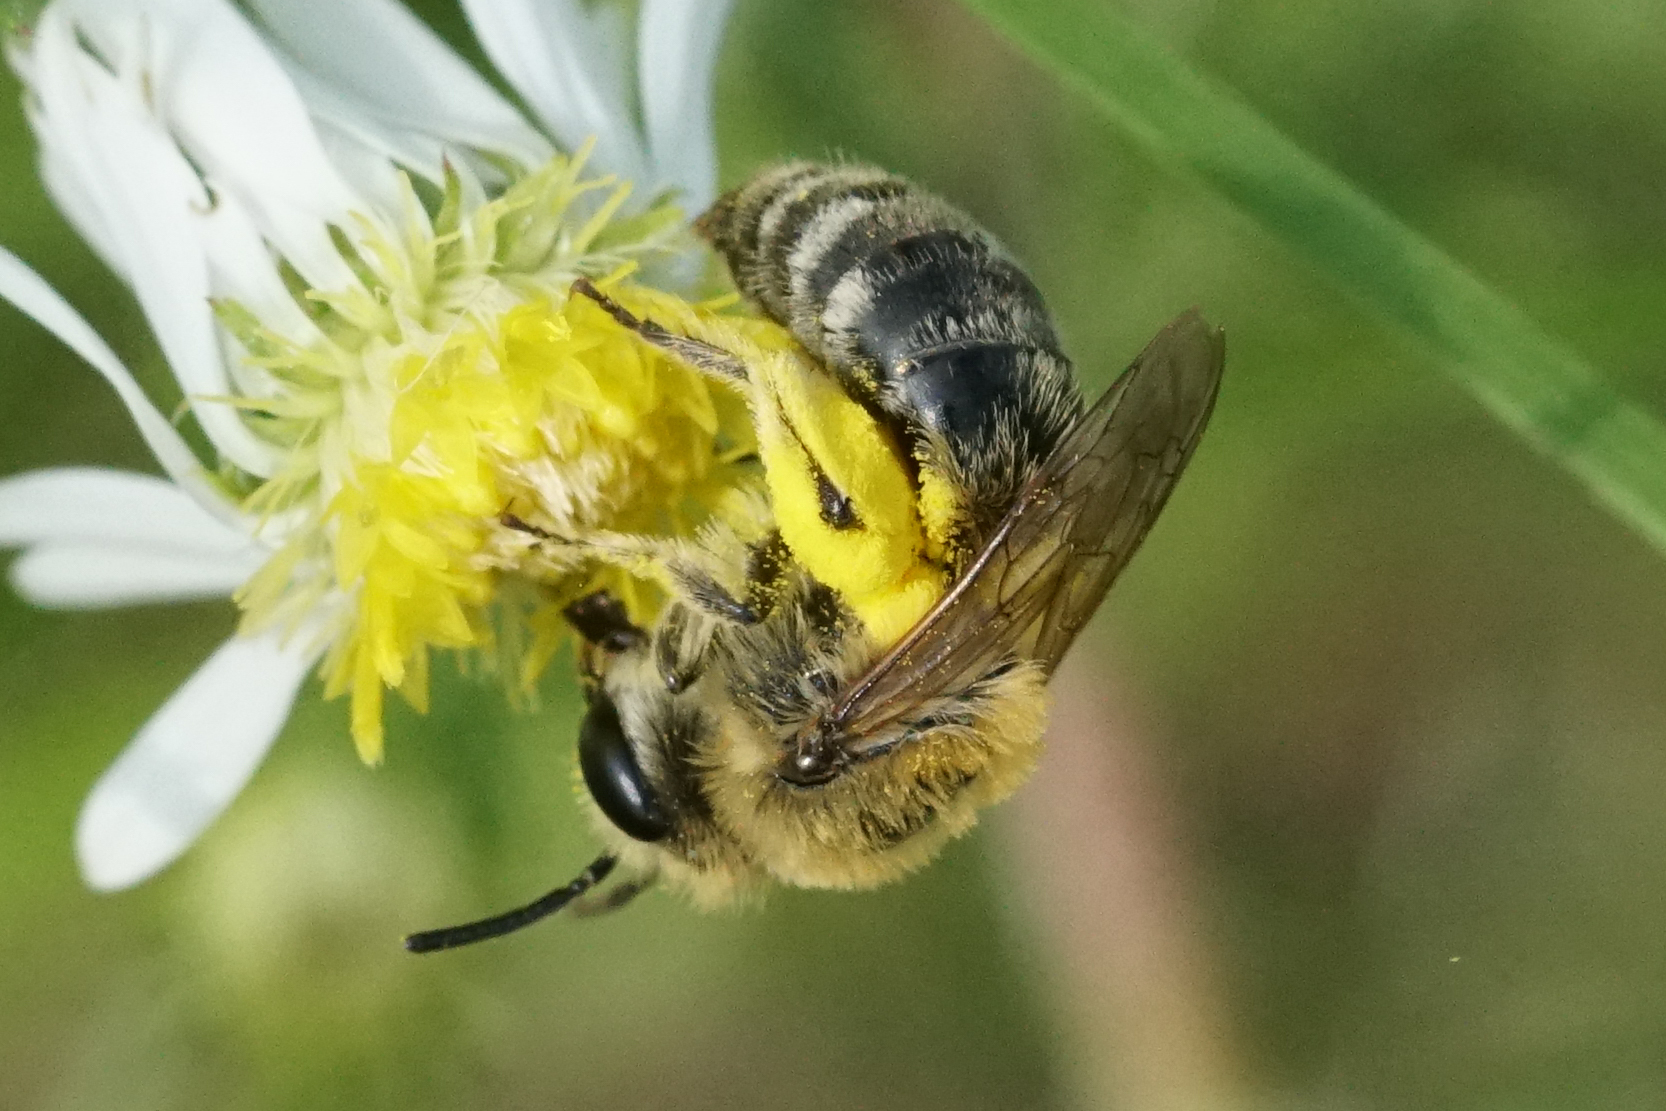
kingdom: Animalia
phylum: Arthropoda
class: Insecta
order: Hymenoptera
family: Colletidae
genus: Colletes
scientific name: Colletes
